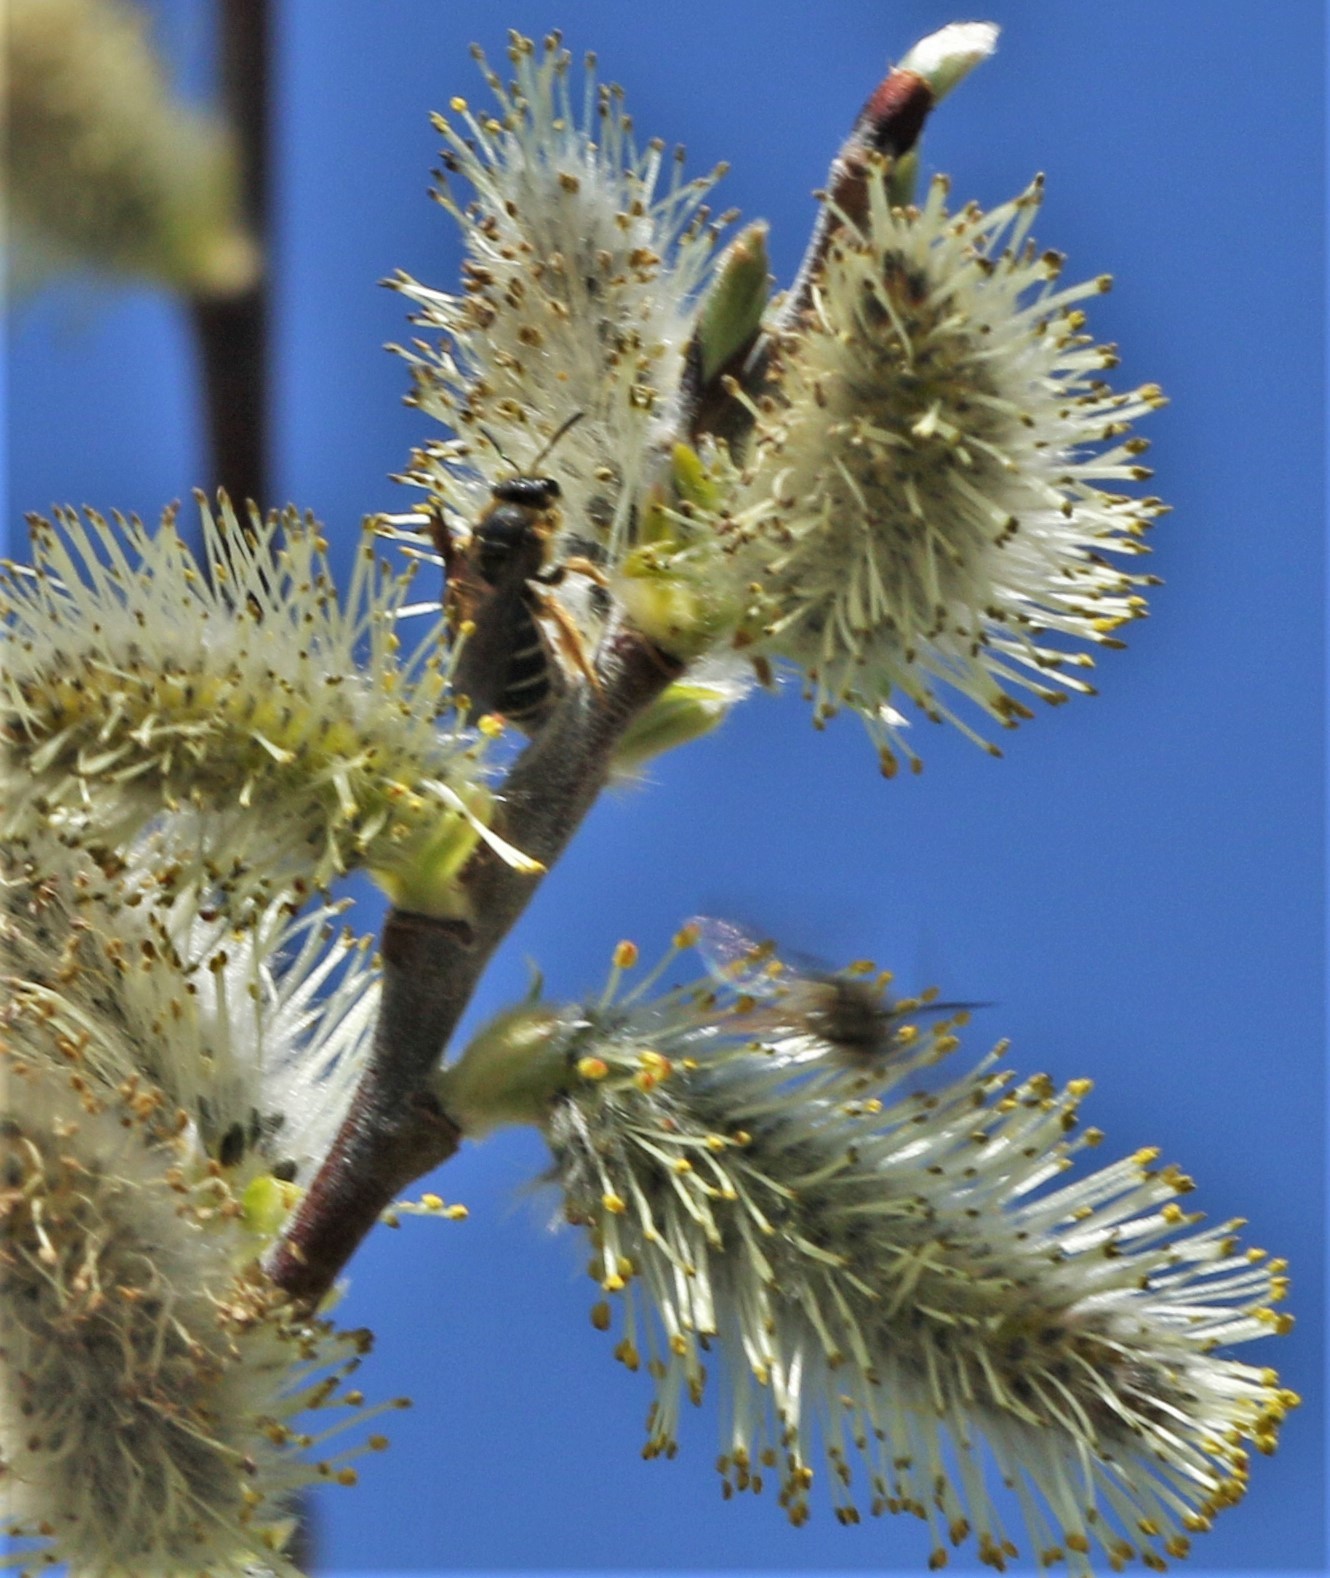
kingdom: Animalia
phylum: Arthropoda
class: Insecta
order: Hymenoptera
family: Halictidae
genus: Halictus
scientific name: Halictus rubicundus
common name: Orange-legged furrow bee
